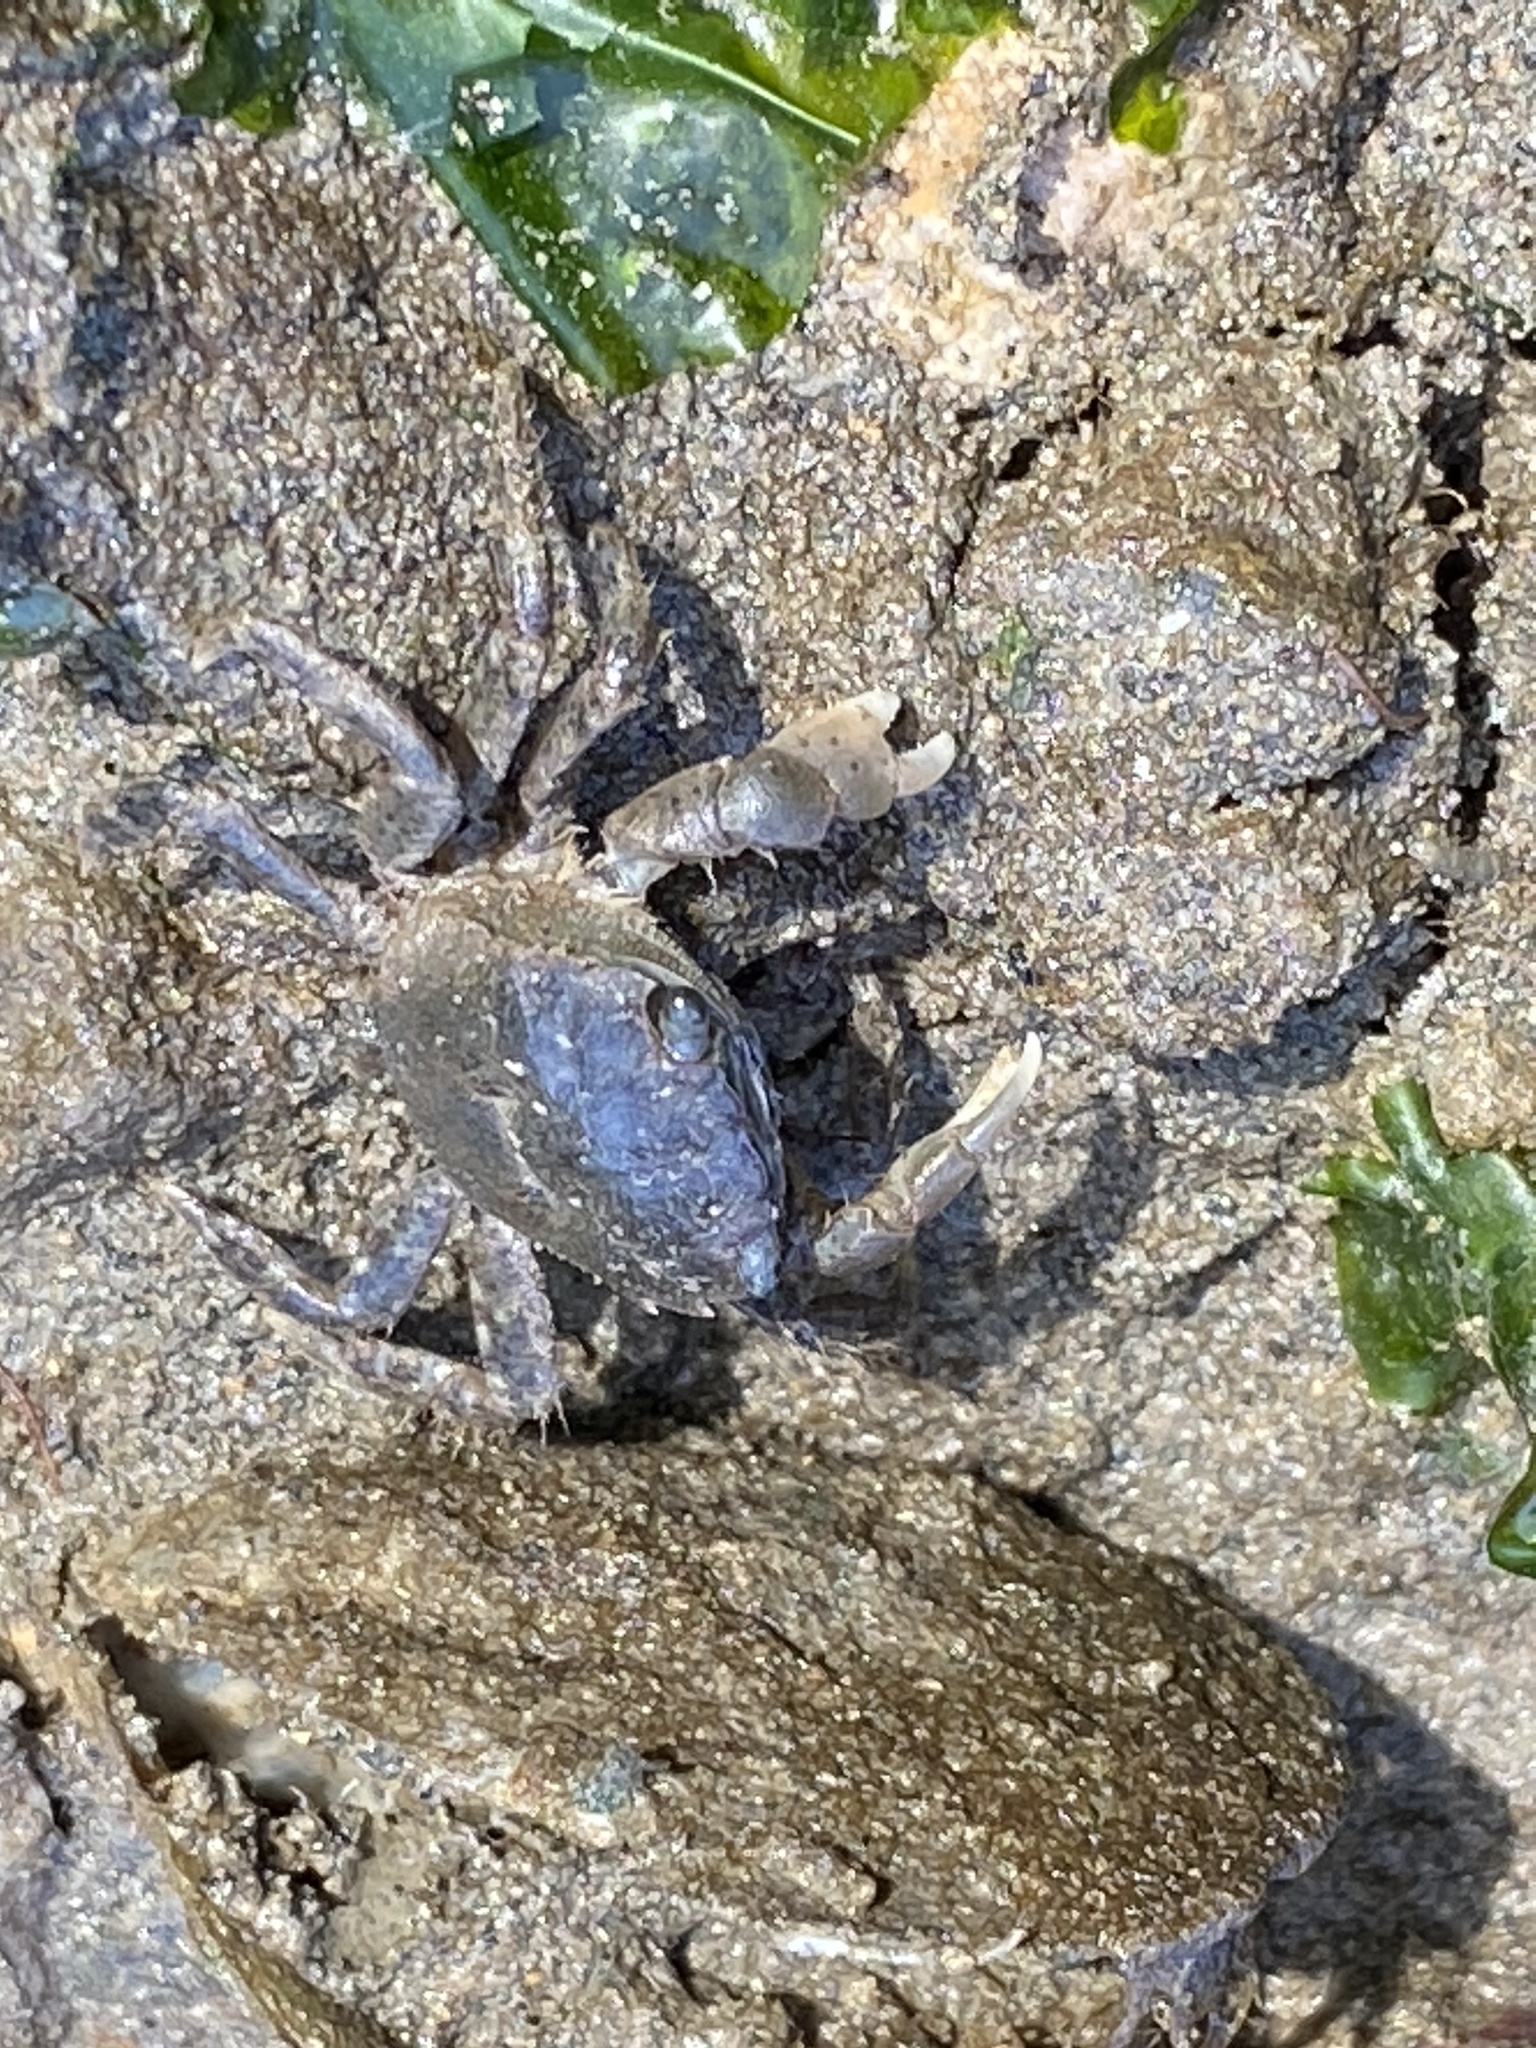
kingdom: Animalia
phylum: Arthropoda
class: Malacostraca
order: Decapoda
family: Varunidae
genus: Hemigrapsus
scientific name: Hemigrapsus oregonensis
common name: Yellow shore crab
